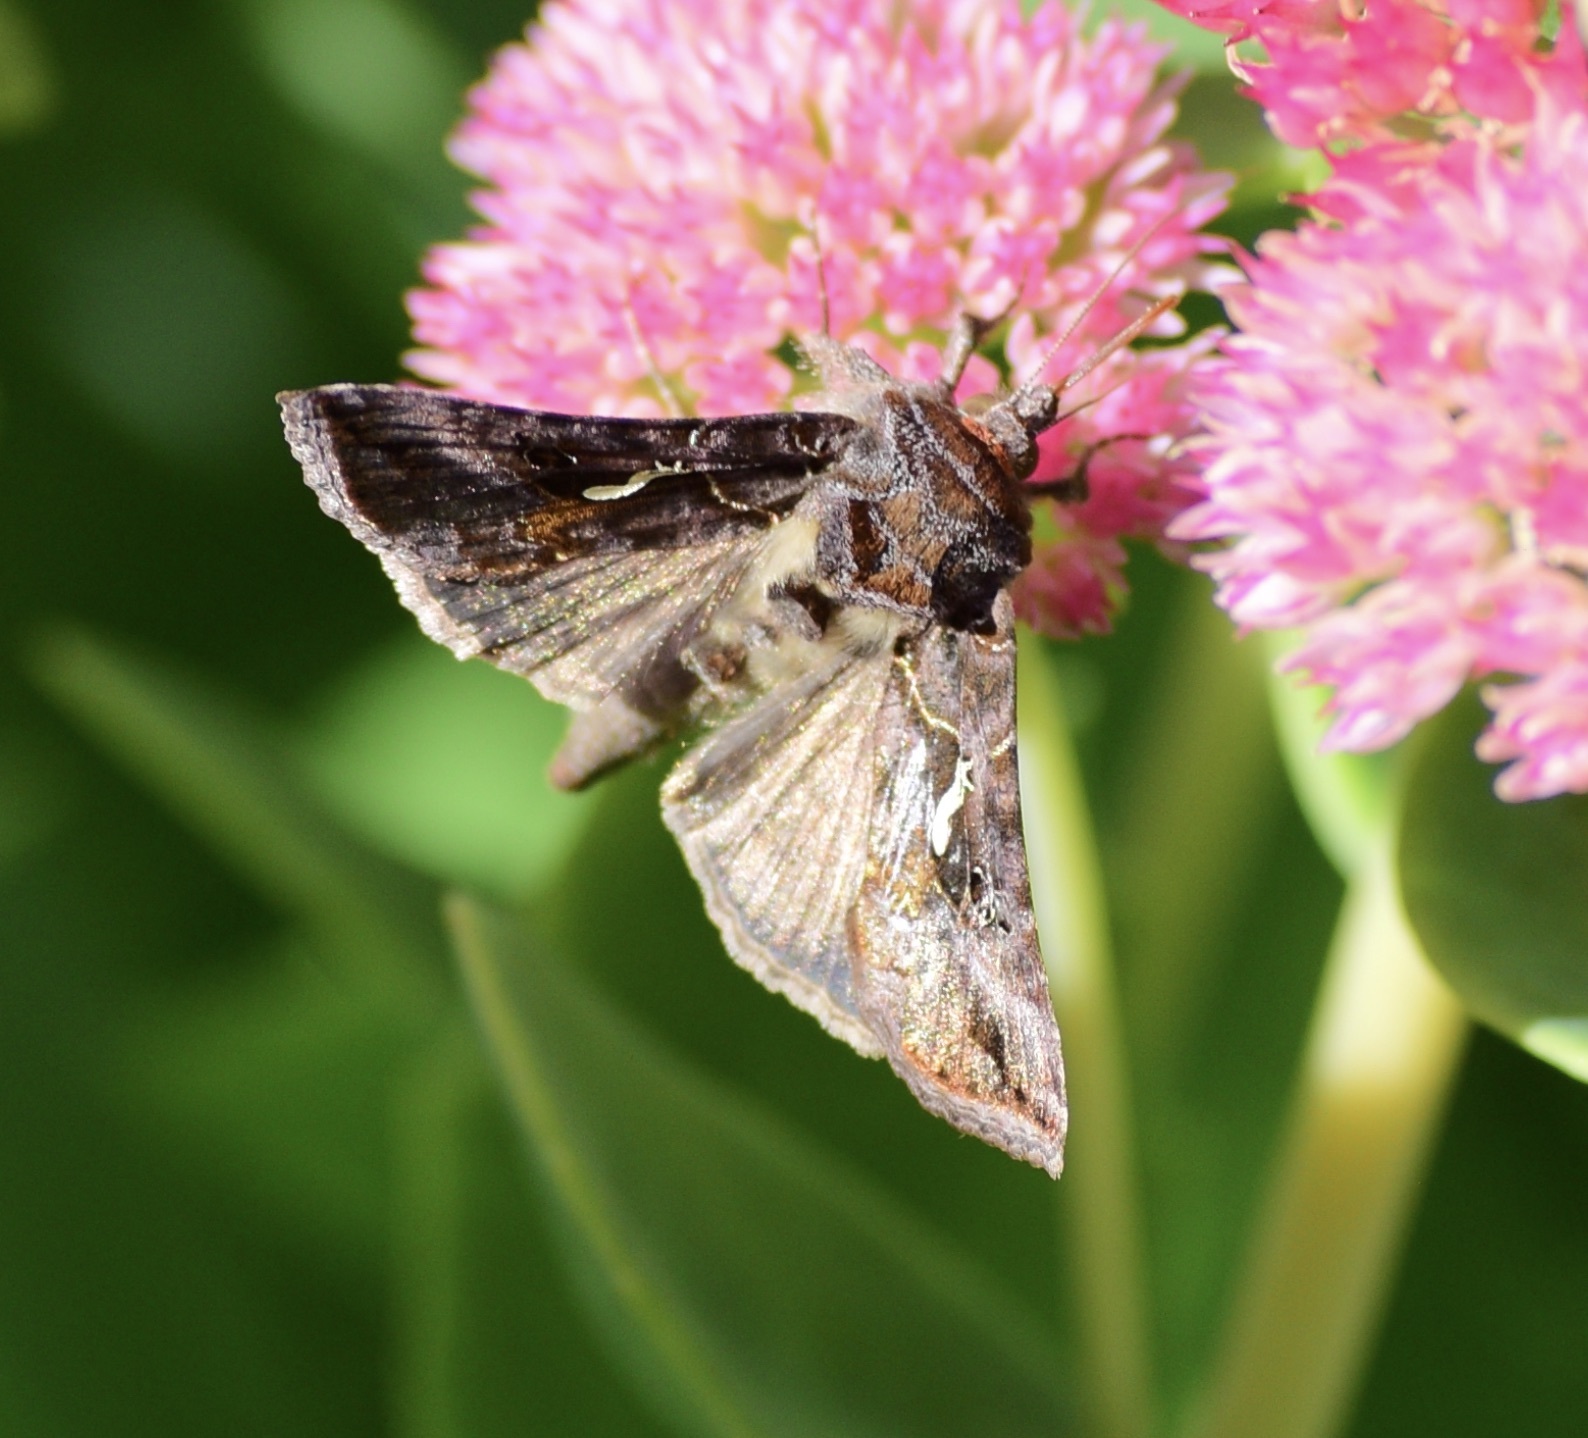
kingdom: Animalia
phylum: Arthropoda
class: Insecta
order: Lepidoptera
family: Noctuidae
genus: Autographa
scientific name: Autographa precationis
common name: Common looper moth
